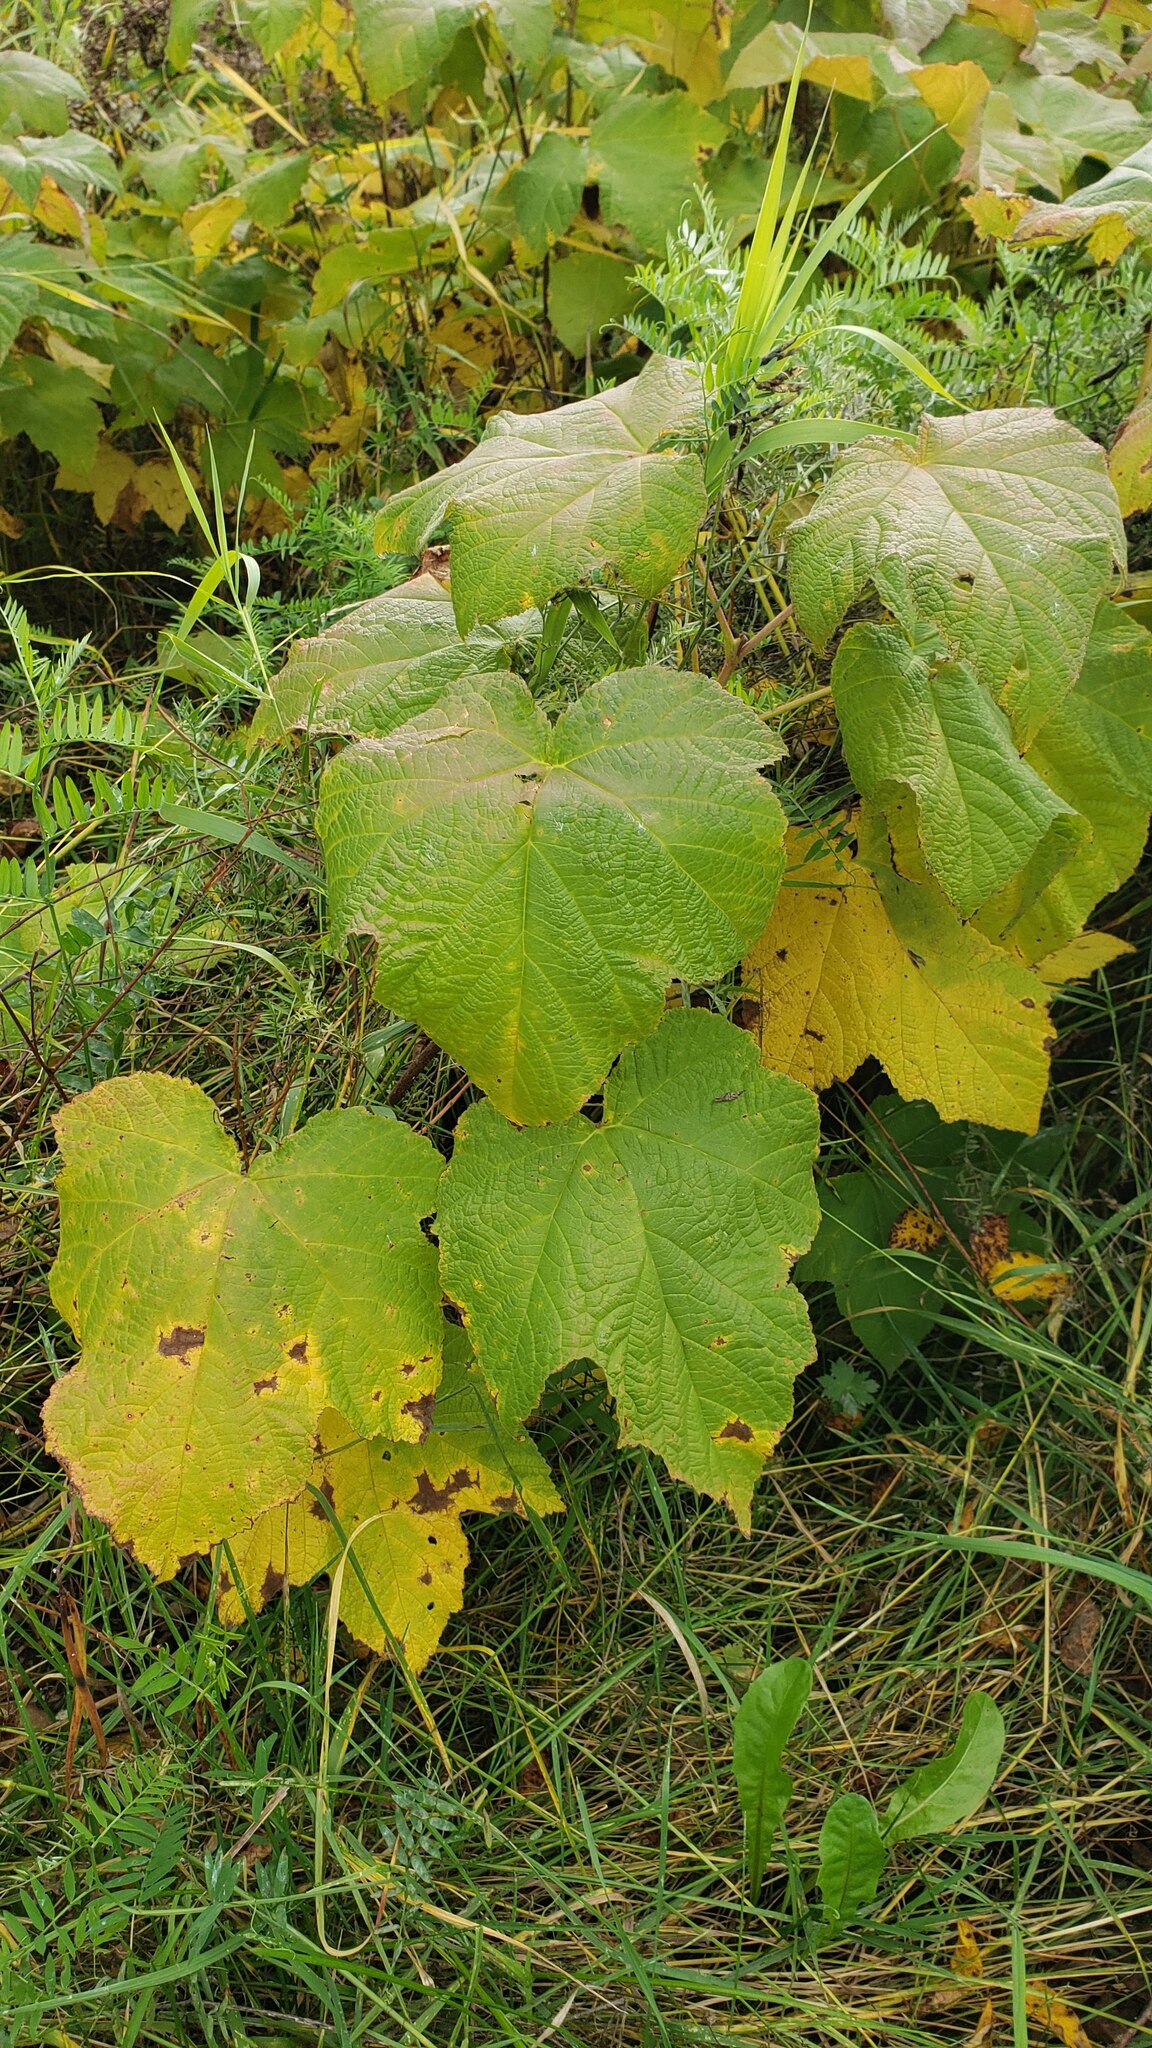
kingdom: Plantae
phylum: Tracheophyta
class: Magnoliopsida
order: Rosales
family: Rosaceae
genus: Rubus
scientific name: Rubus parviflorus
